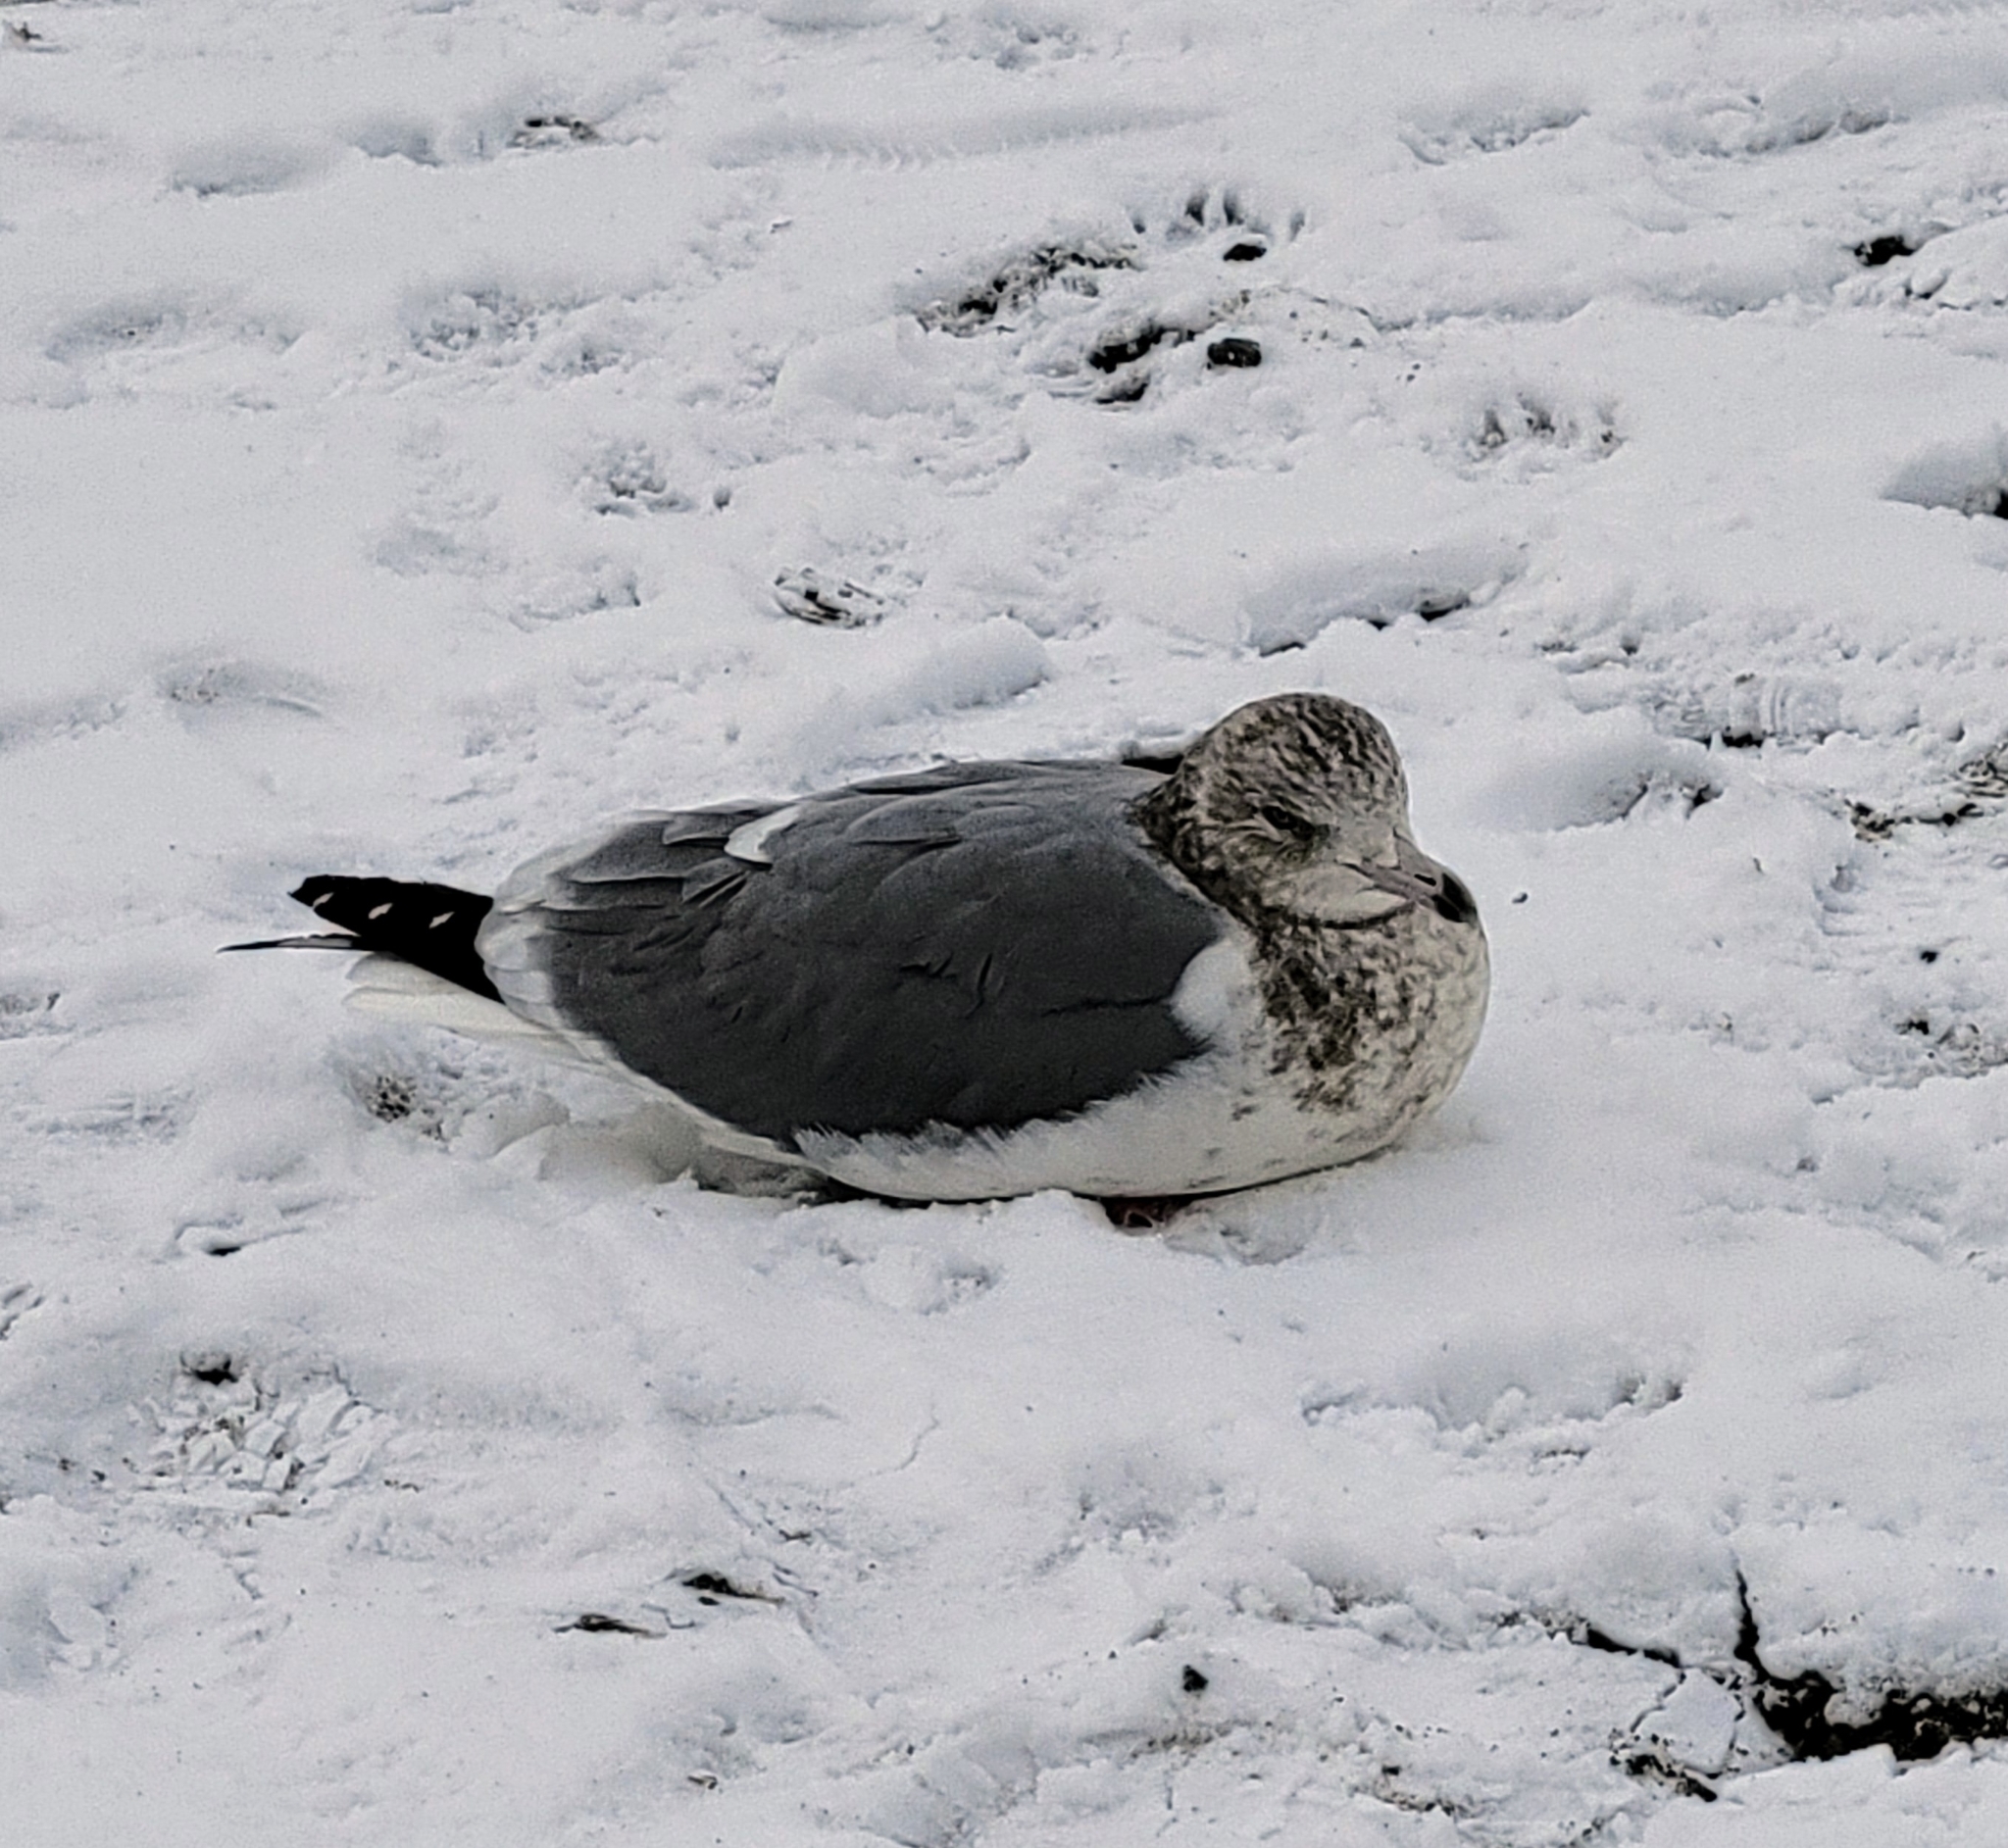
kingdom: Animalia
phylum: Chordata
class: Aves
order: Charadriiformes
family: Laridae
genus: Larus
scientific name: Larus californicus
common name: California gull
